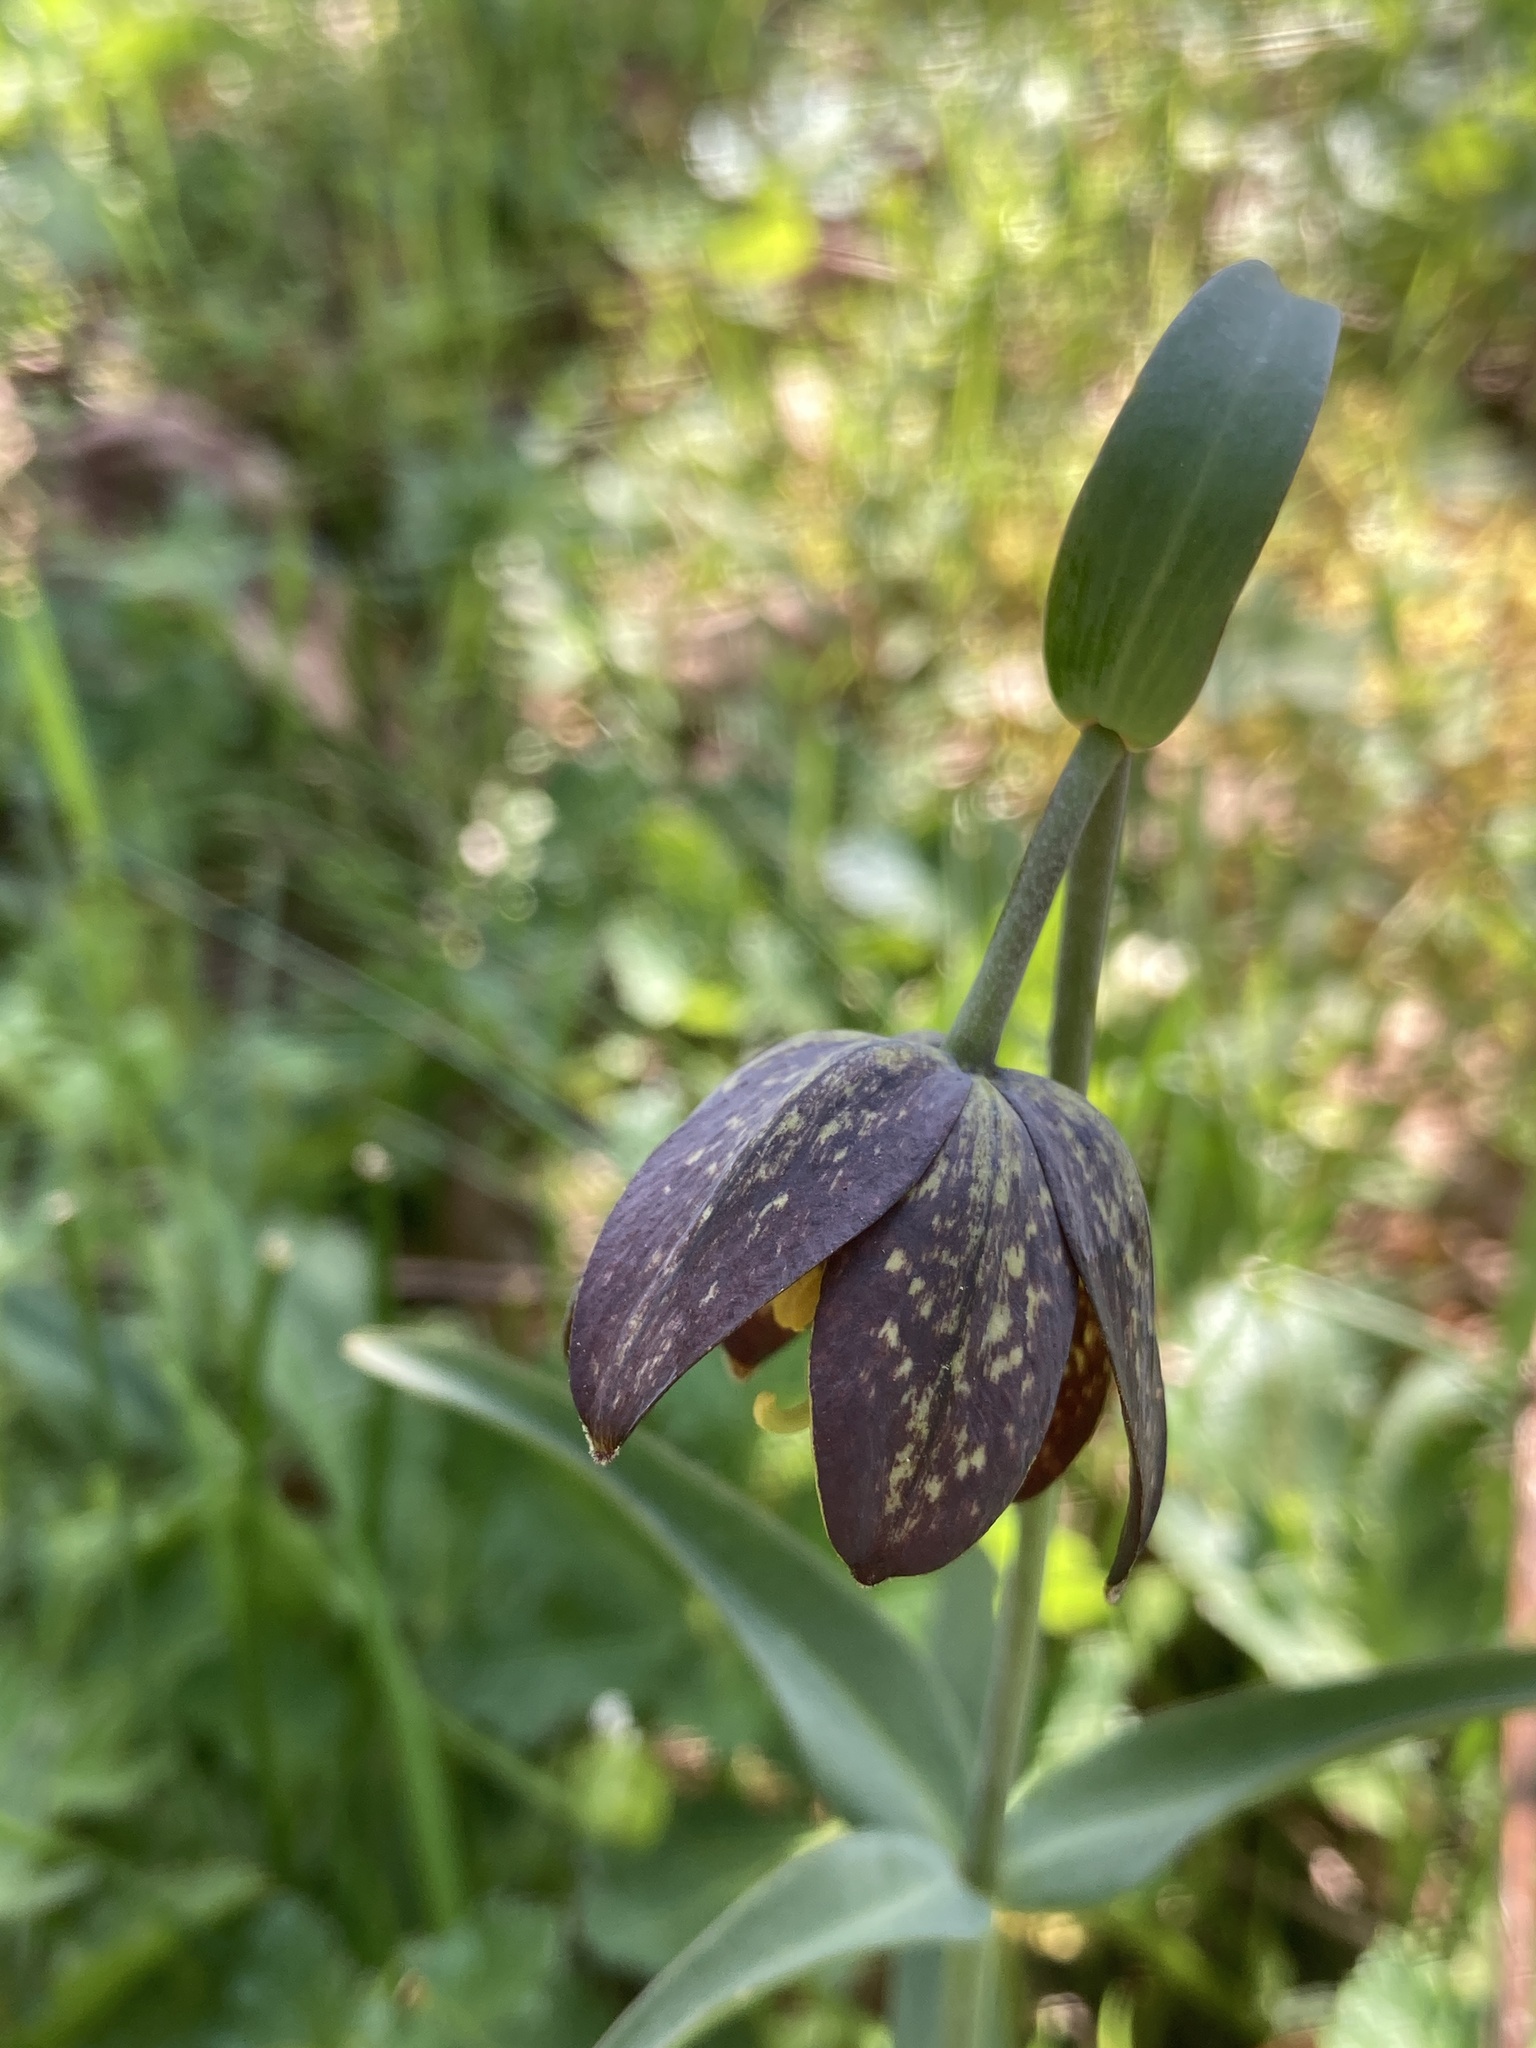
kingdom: Plantae
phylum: Tracheophyta
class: Liliopsida
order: Liliales
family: Liliaceae
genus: Fritillaria
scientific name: Fritillaria affinis
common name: Ojai fritillary
